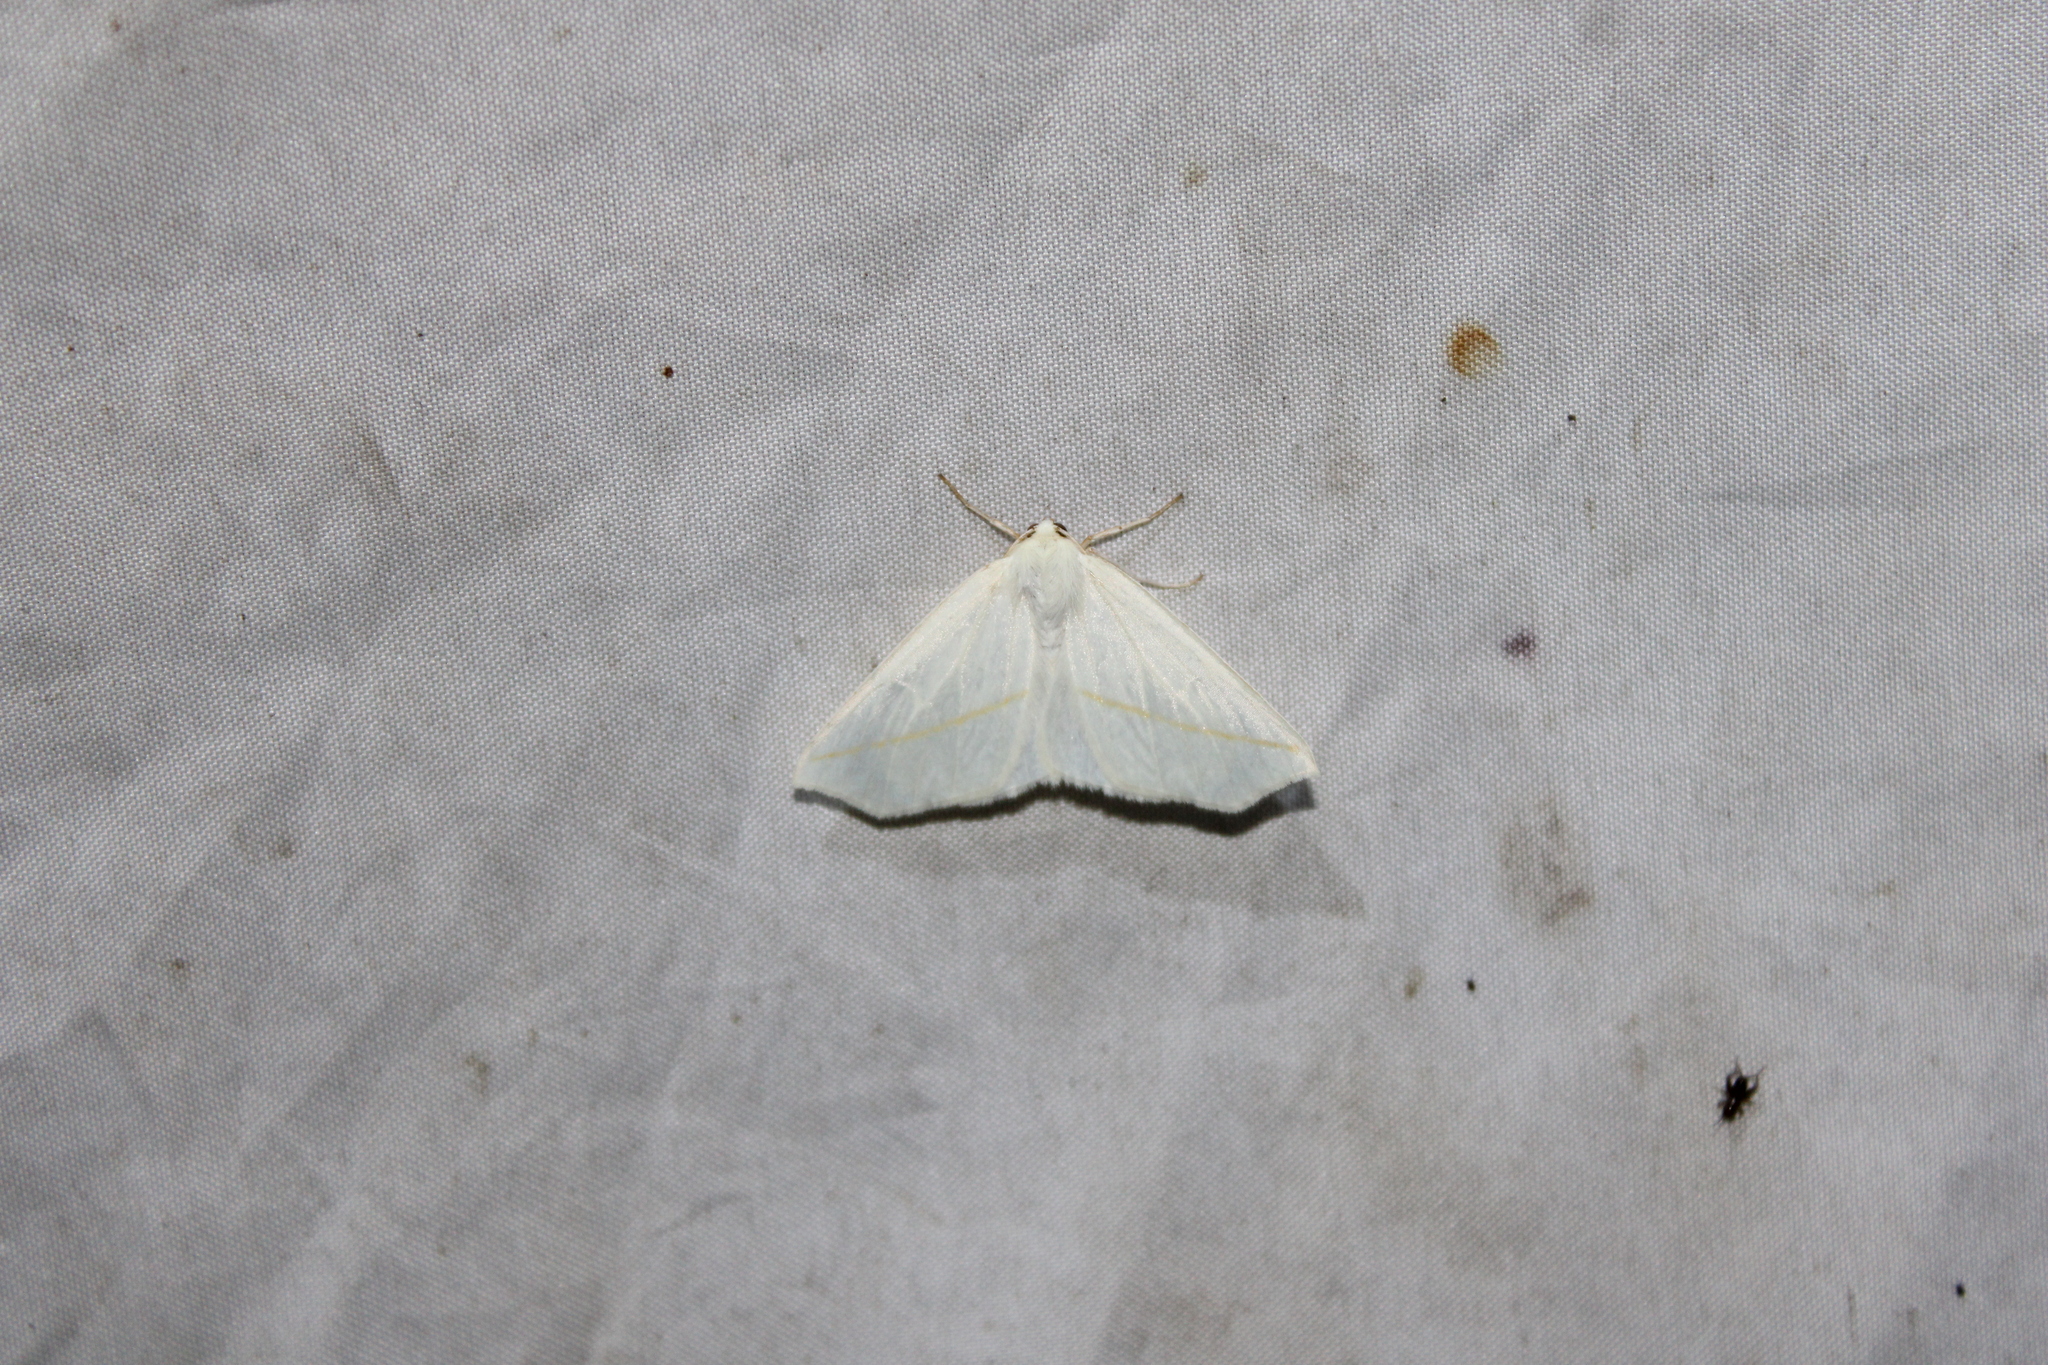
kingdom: Animalia
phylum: Arthropoda
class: Insecta
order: Lepidoptera
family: Geometridae
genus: Tetracis
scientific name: Tetracis cachexiata
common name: White slant-line
